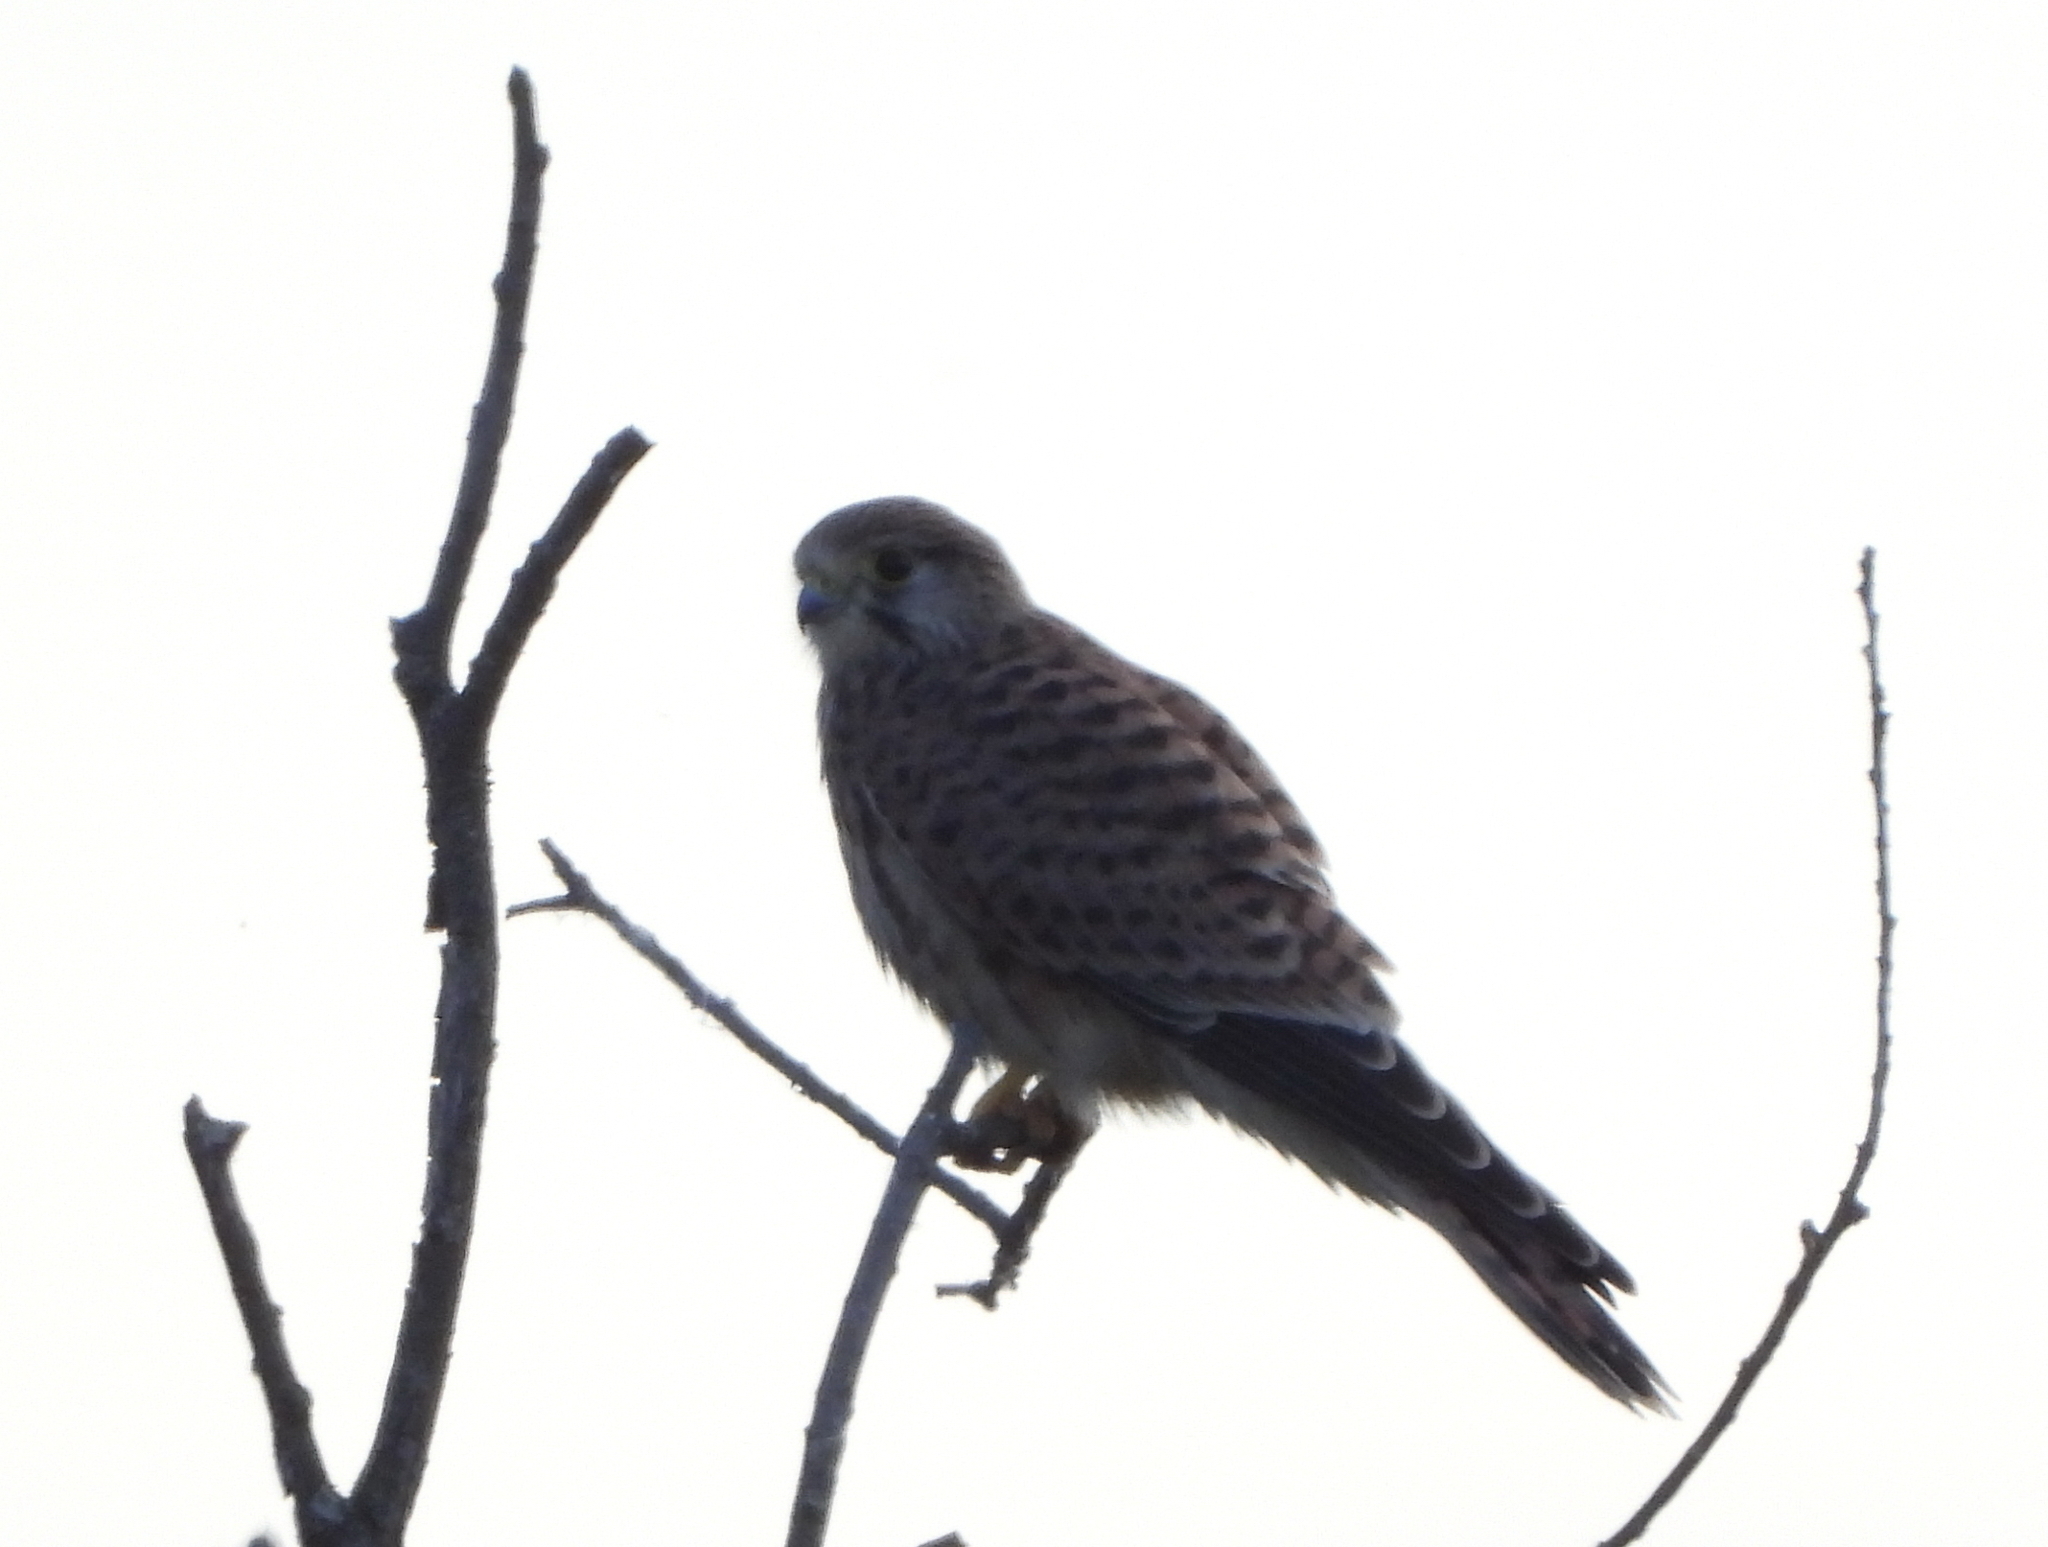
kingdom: Animalia
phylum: Chordata
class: Aves
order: Falconiformes
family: Falconidae
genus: Falco
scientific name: Falco tinnunculus
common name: Common kestrel
